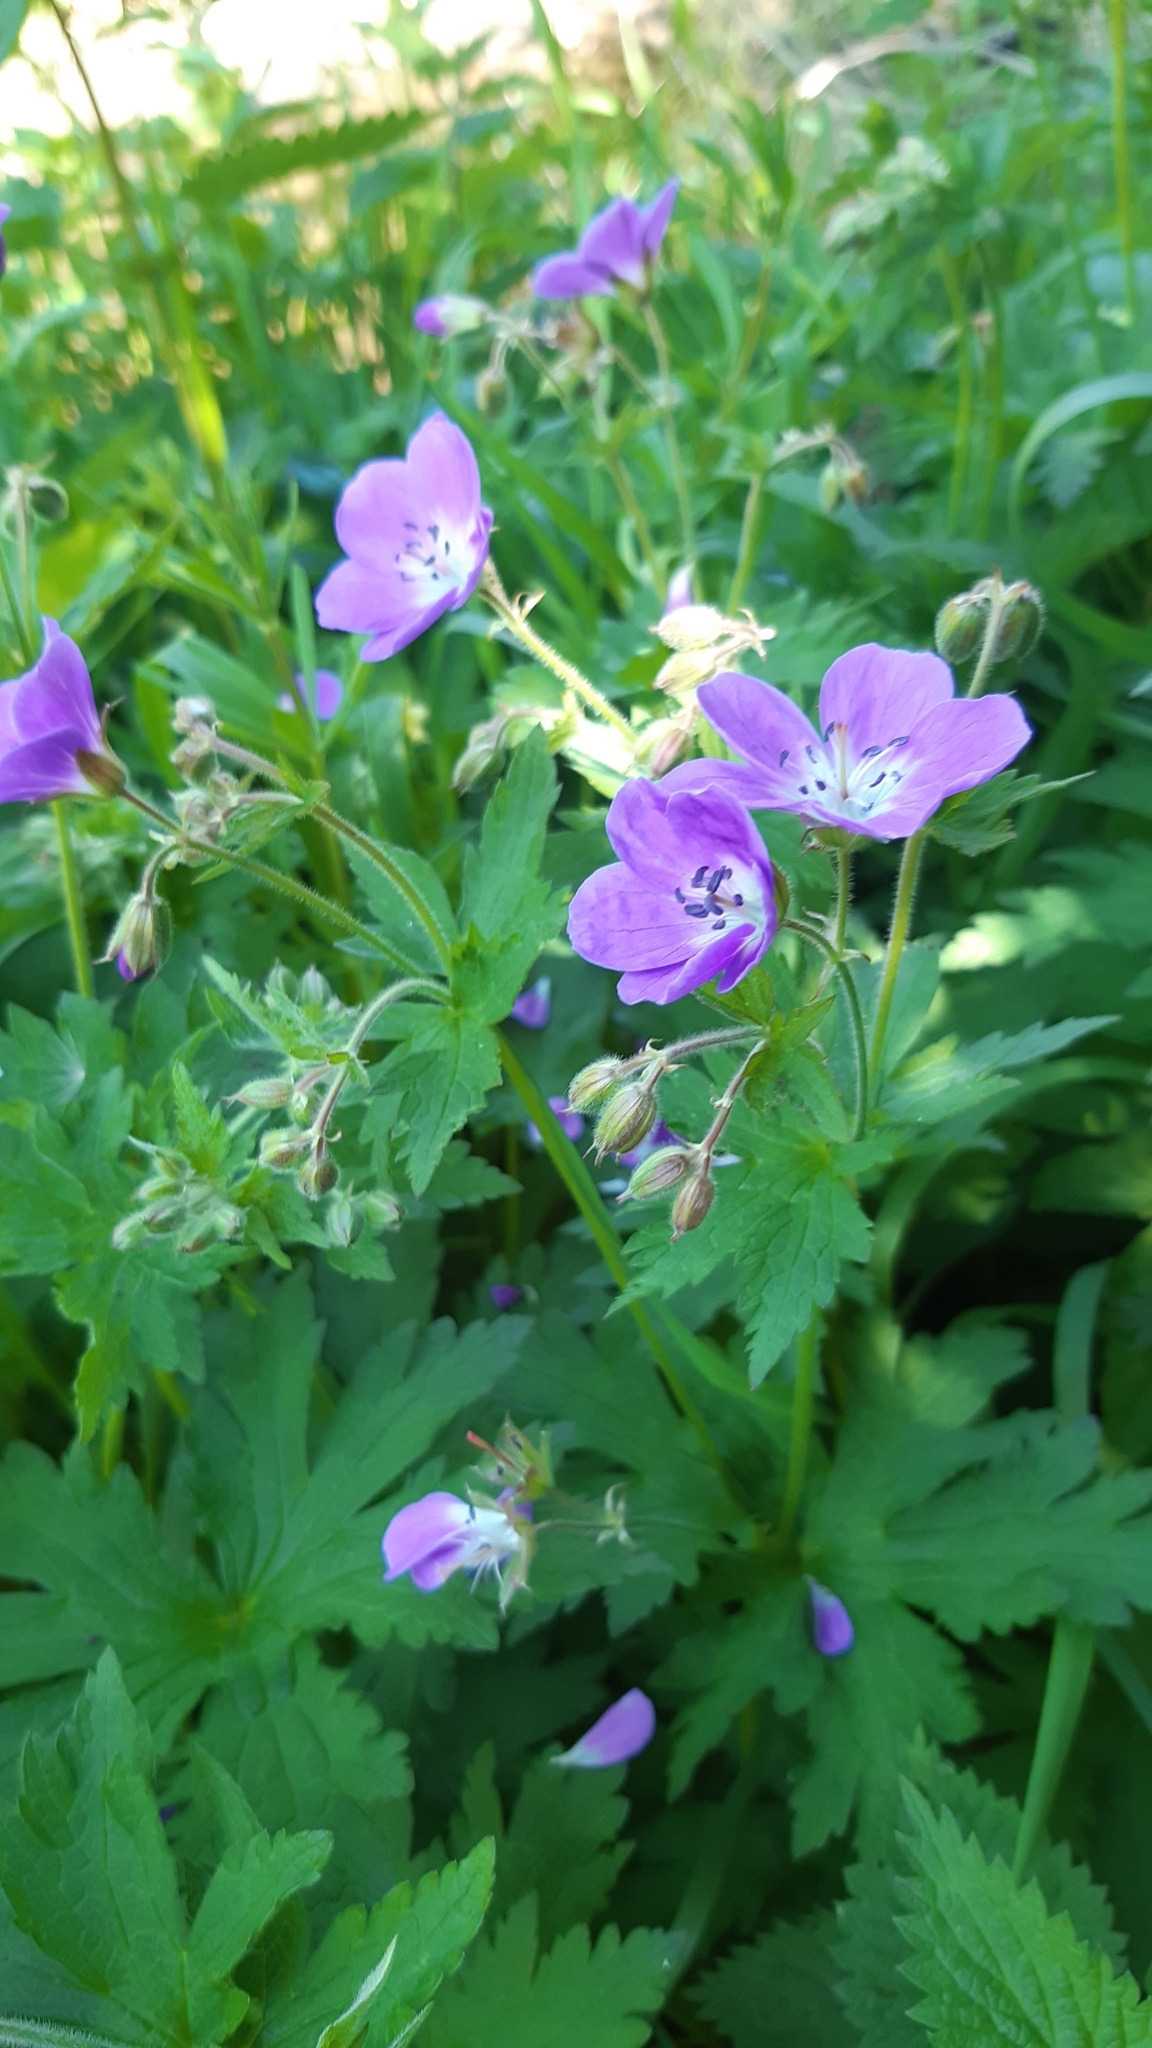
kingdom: Plantae
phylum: Tracheophyta
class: Magnoliopsida
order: Geraniales
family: Geraniaceae
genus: Geranium
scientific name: Geranium sylvaticum
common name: Wood crane's-bill
